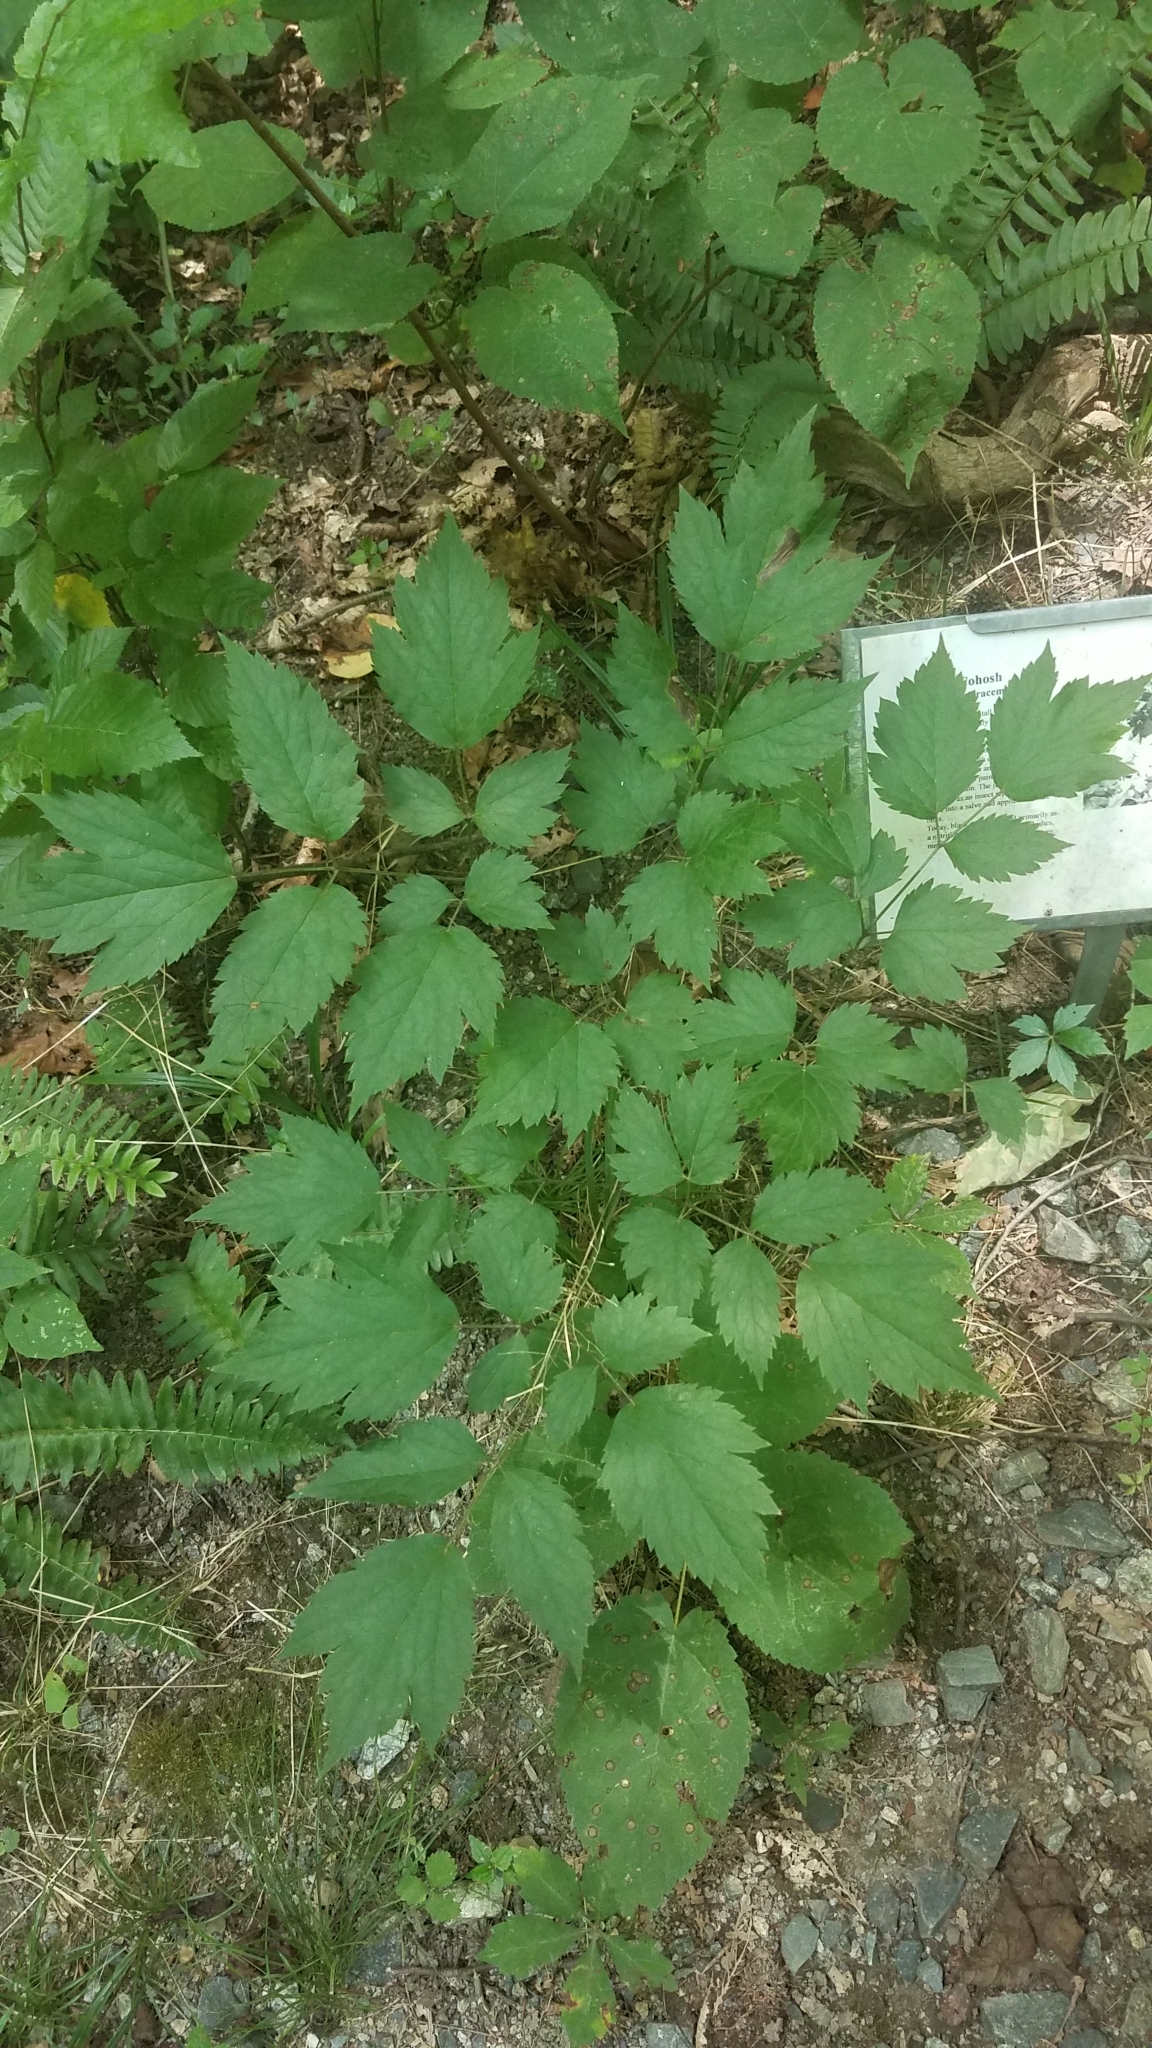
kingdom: Plantae
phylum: Tracheophyta
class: Magnoliopsida
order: Ranunculales
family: Ranunculaceae
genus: Actaea
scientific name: Actaea racemosa
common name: Black cohosh
